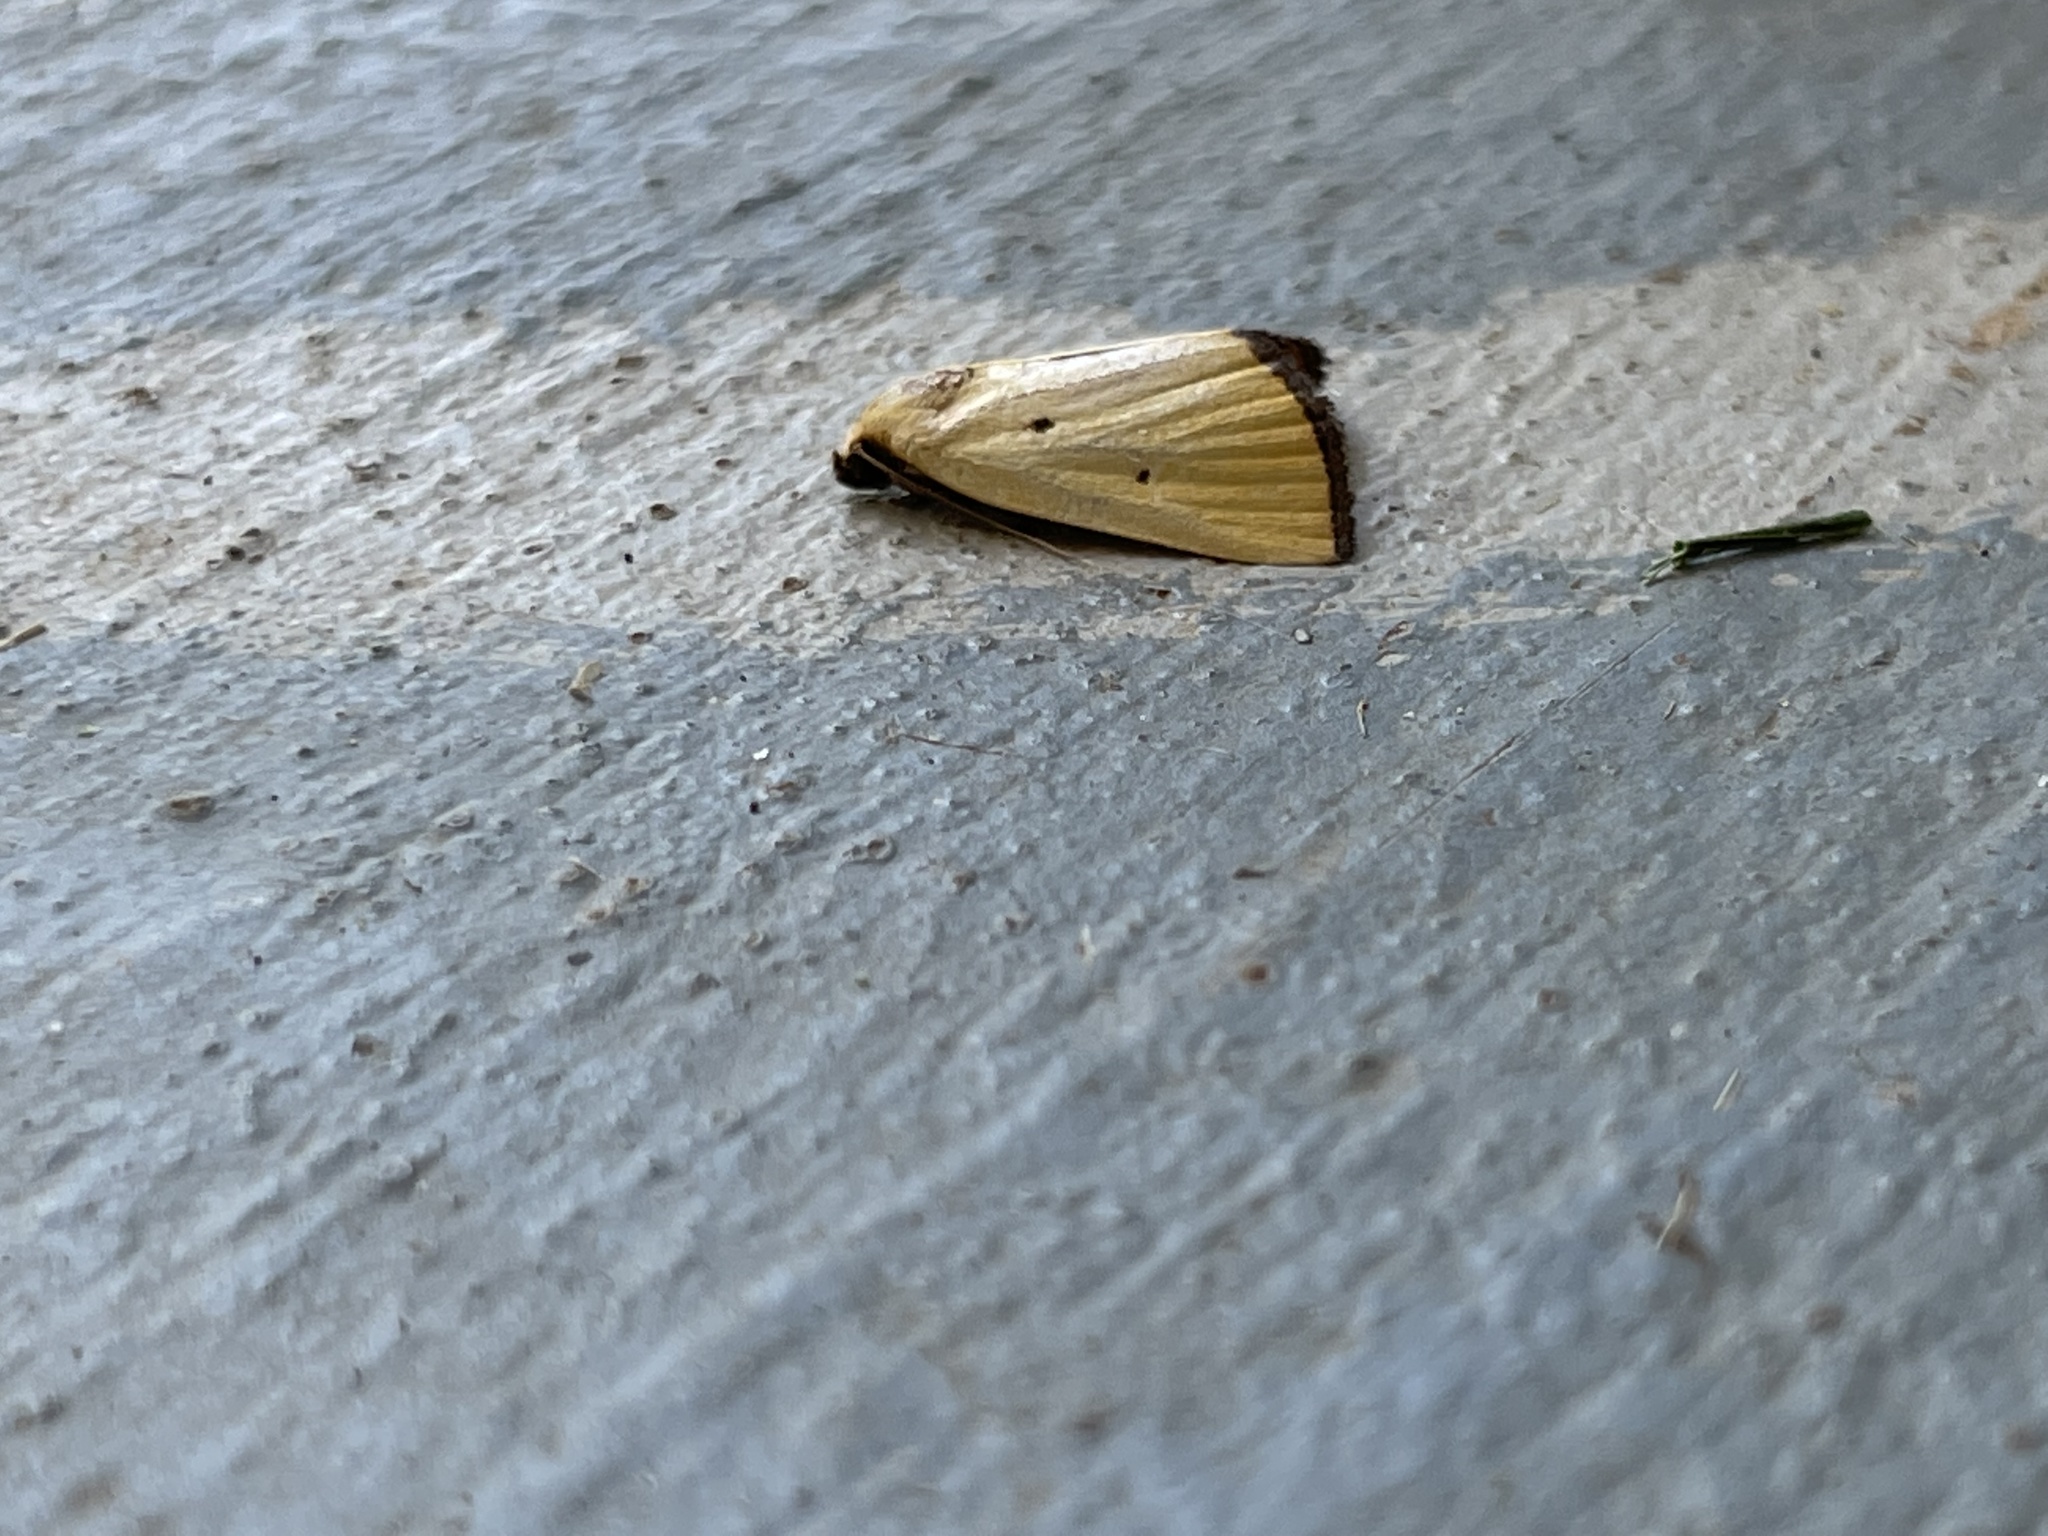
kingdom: Animalia
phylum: Arthropoda
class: Insecta
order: Lepidoptera
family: Noctuidae
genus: Marimatha
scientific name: Marimatha nigrofimbria
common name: Black-bordered lemon moth
